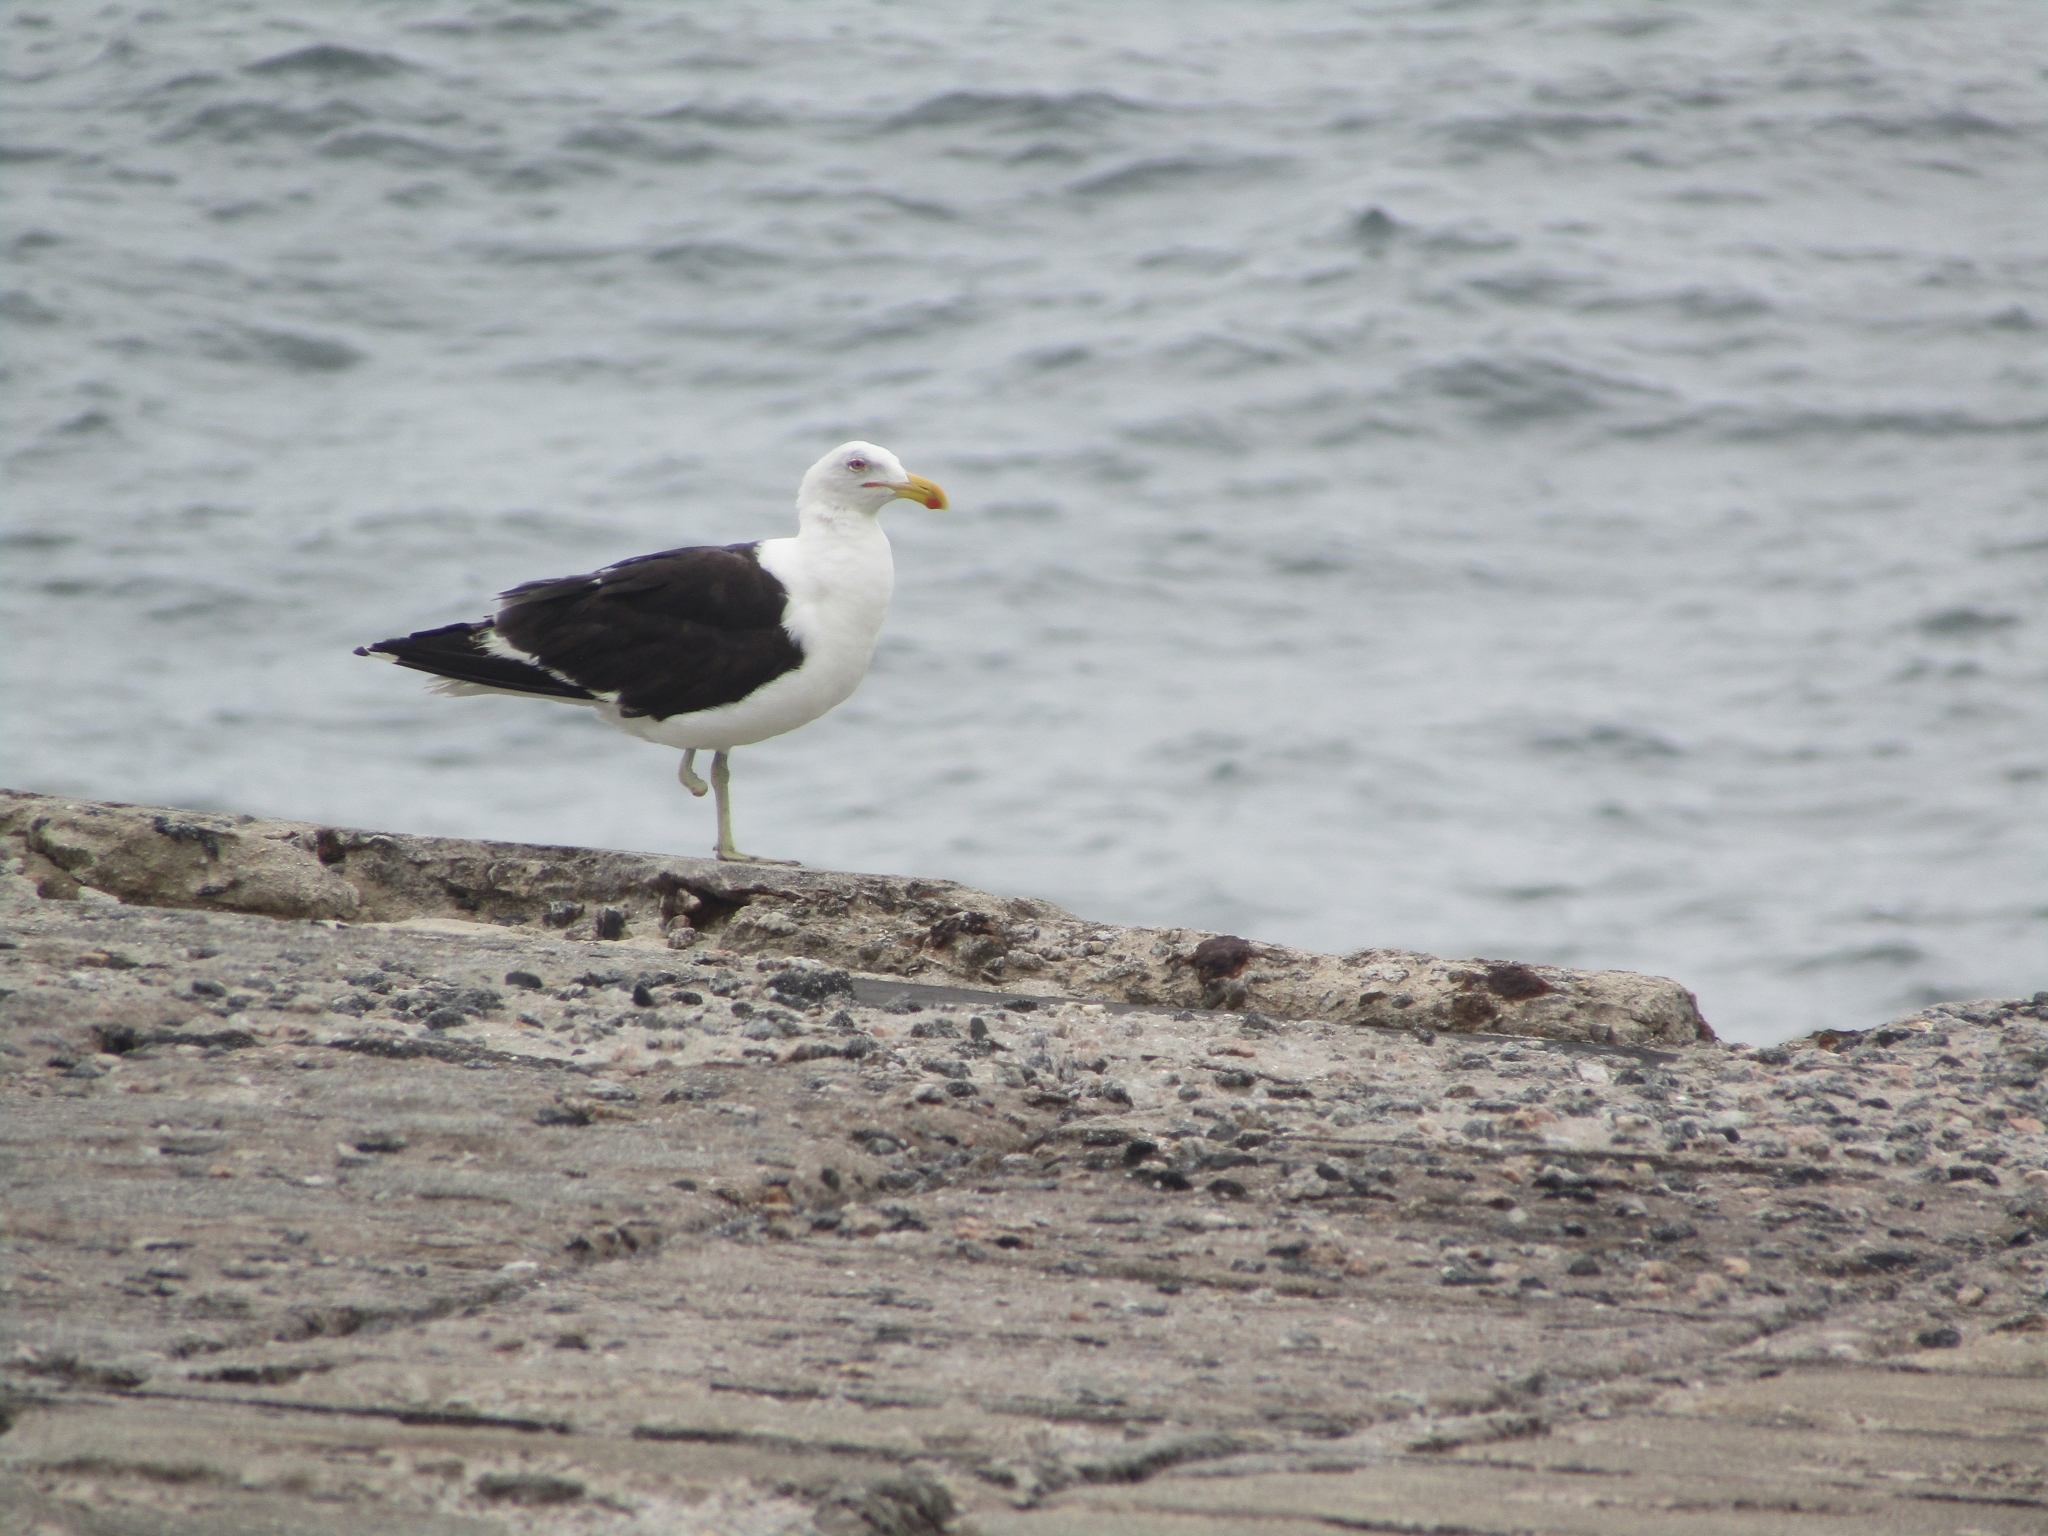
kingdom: Animalia
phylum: Chordata
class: Aves
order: Charadriiformes
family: Laridae
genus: Larus
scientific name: Larus dominicanus
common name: Kelp gull
